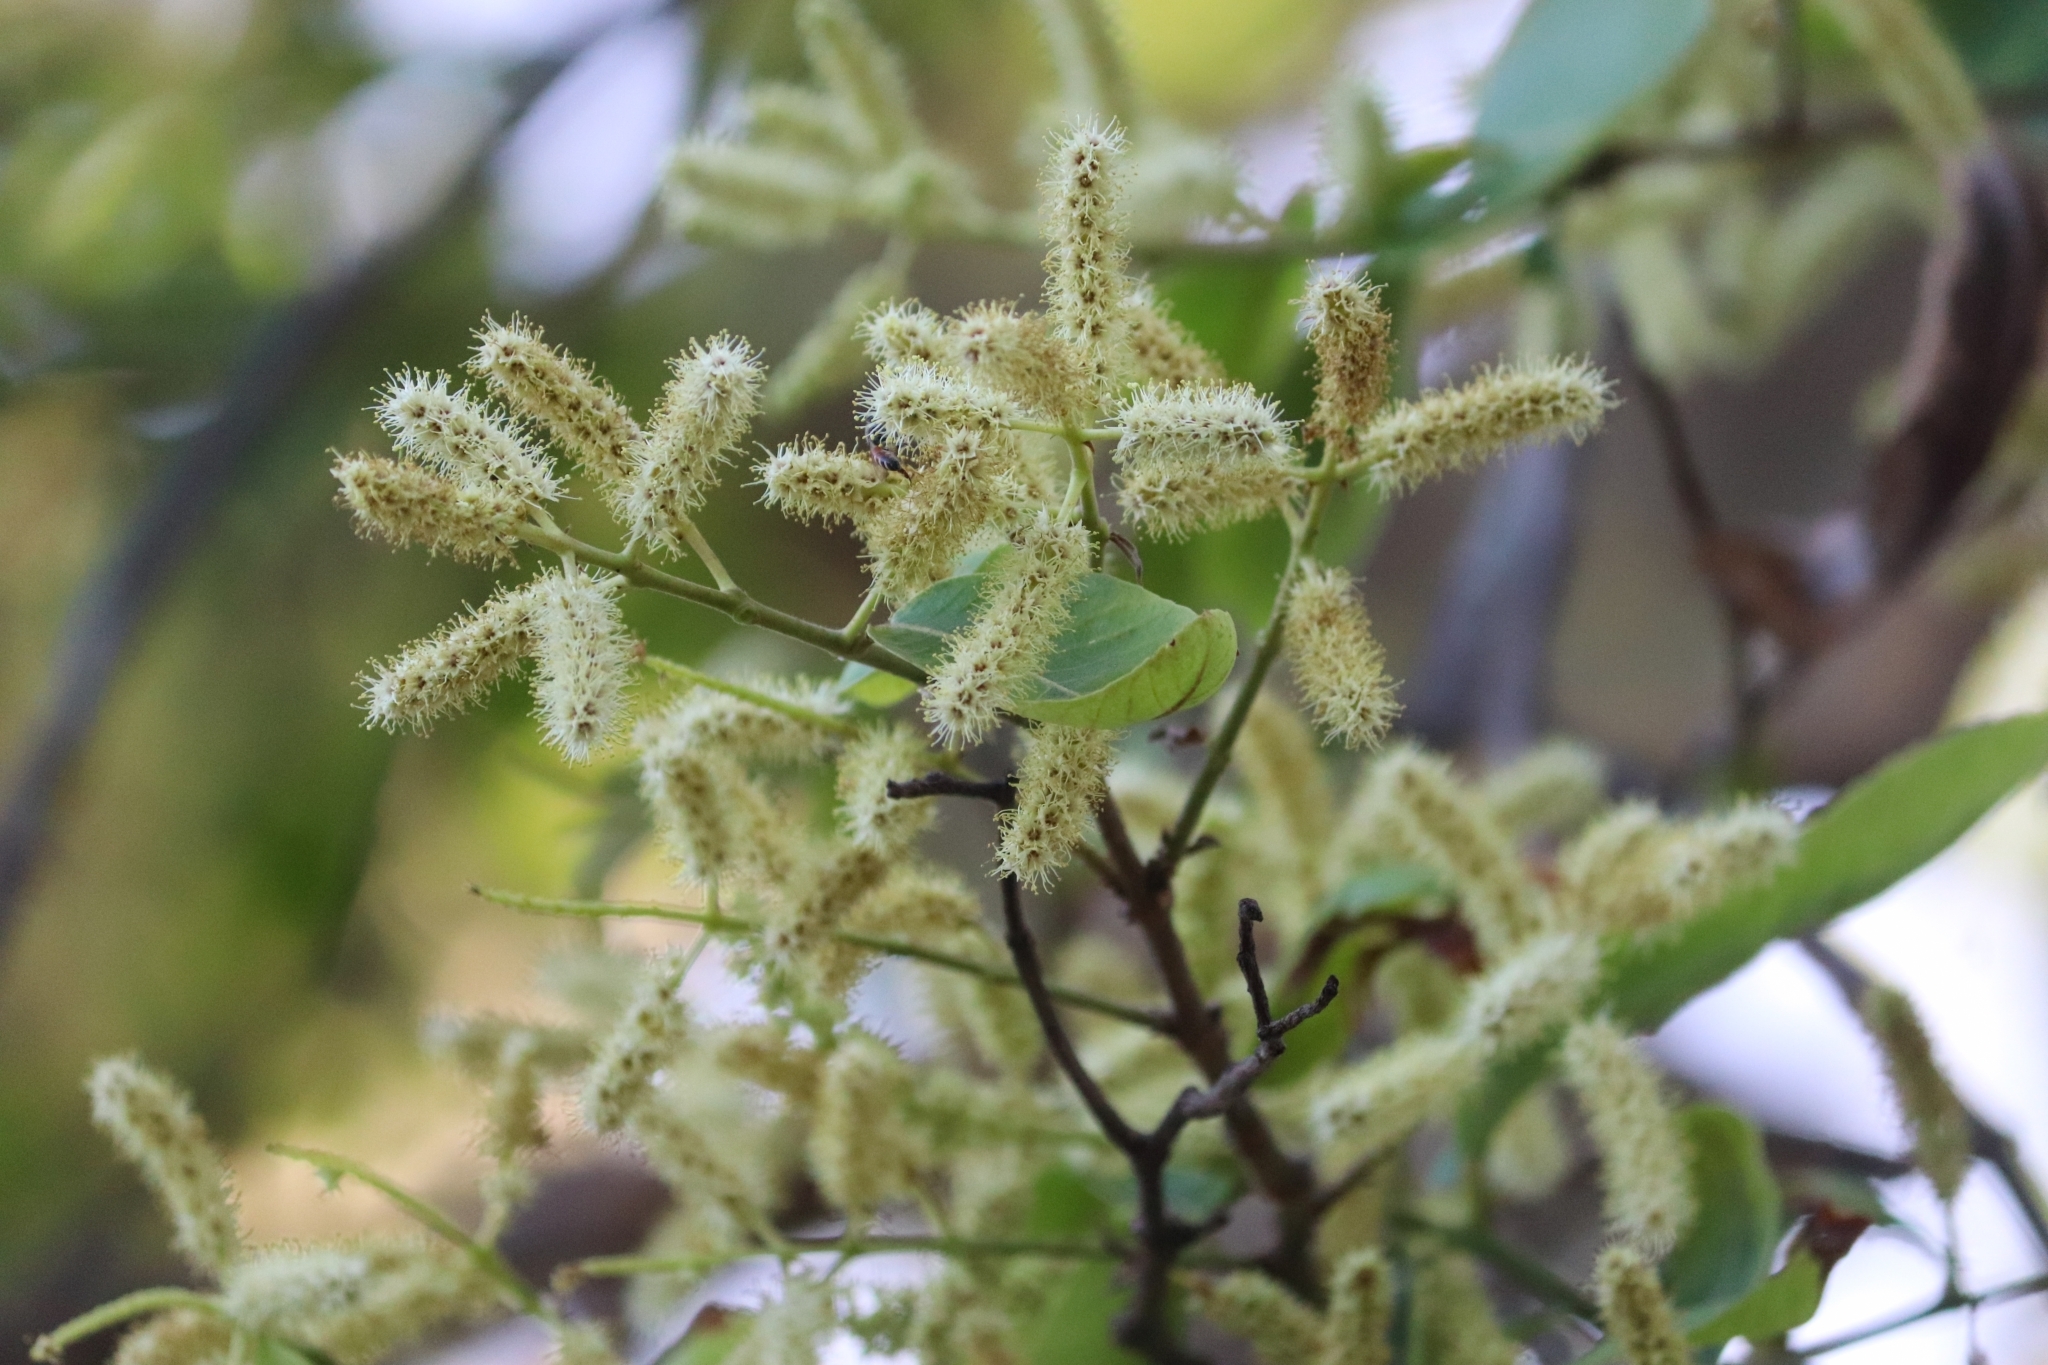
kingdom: Plantae
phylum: Tracheophyta
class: Magnoliopsida
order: Myrtales
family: Combretaceae
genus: Terminalia
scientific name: Terminalia arjuna
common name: Arjun
